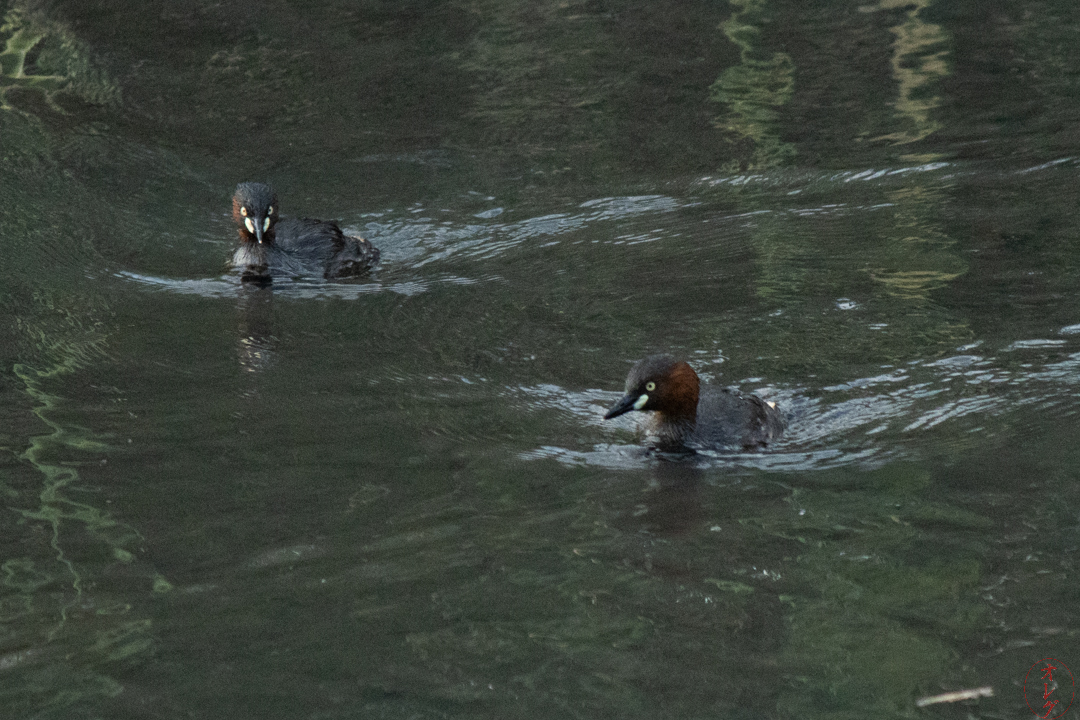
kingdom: Animalia
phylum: Chordata
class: Aves
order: Podicipediformes
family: Podicipedidae
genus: Tachybaptus
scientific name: Tachybaptus ruficollis
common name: Little grebe
